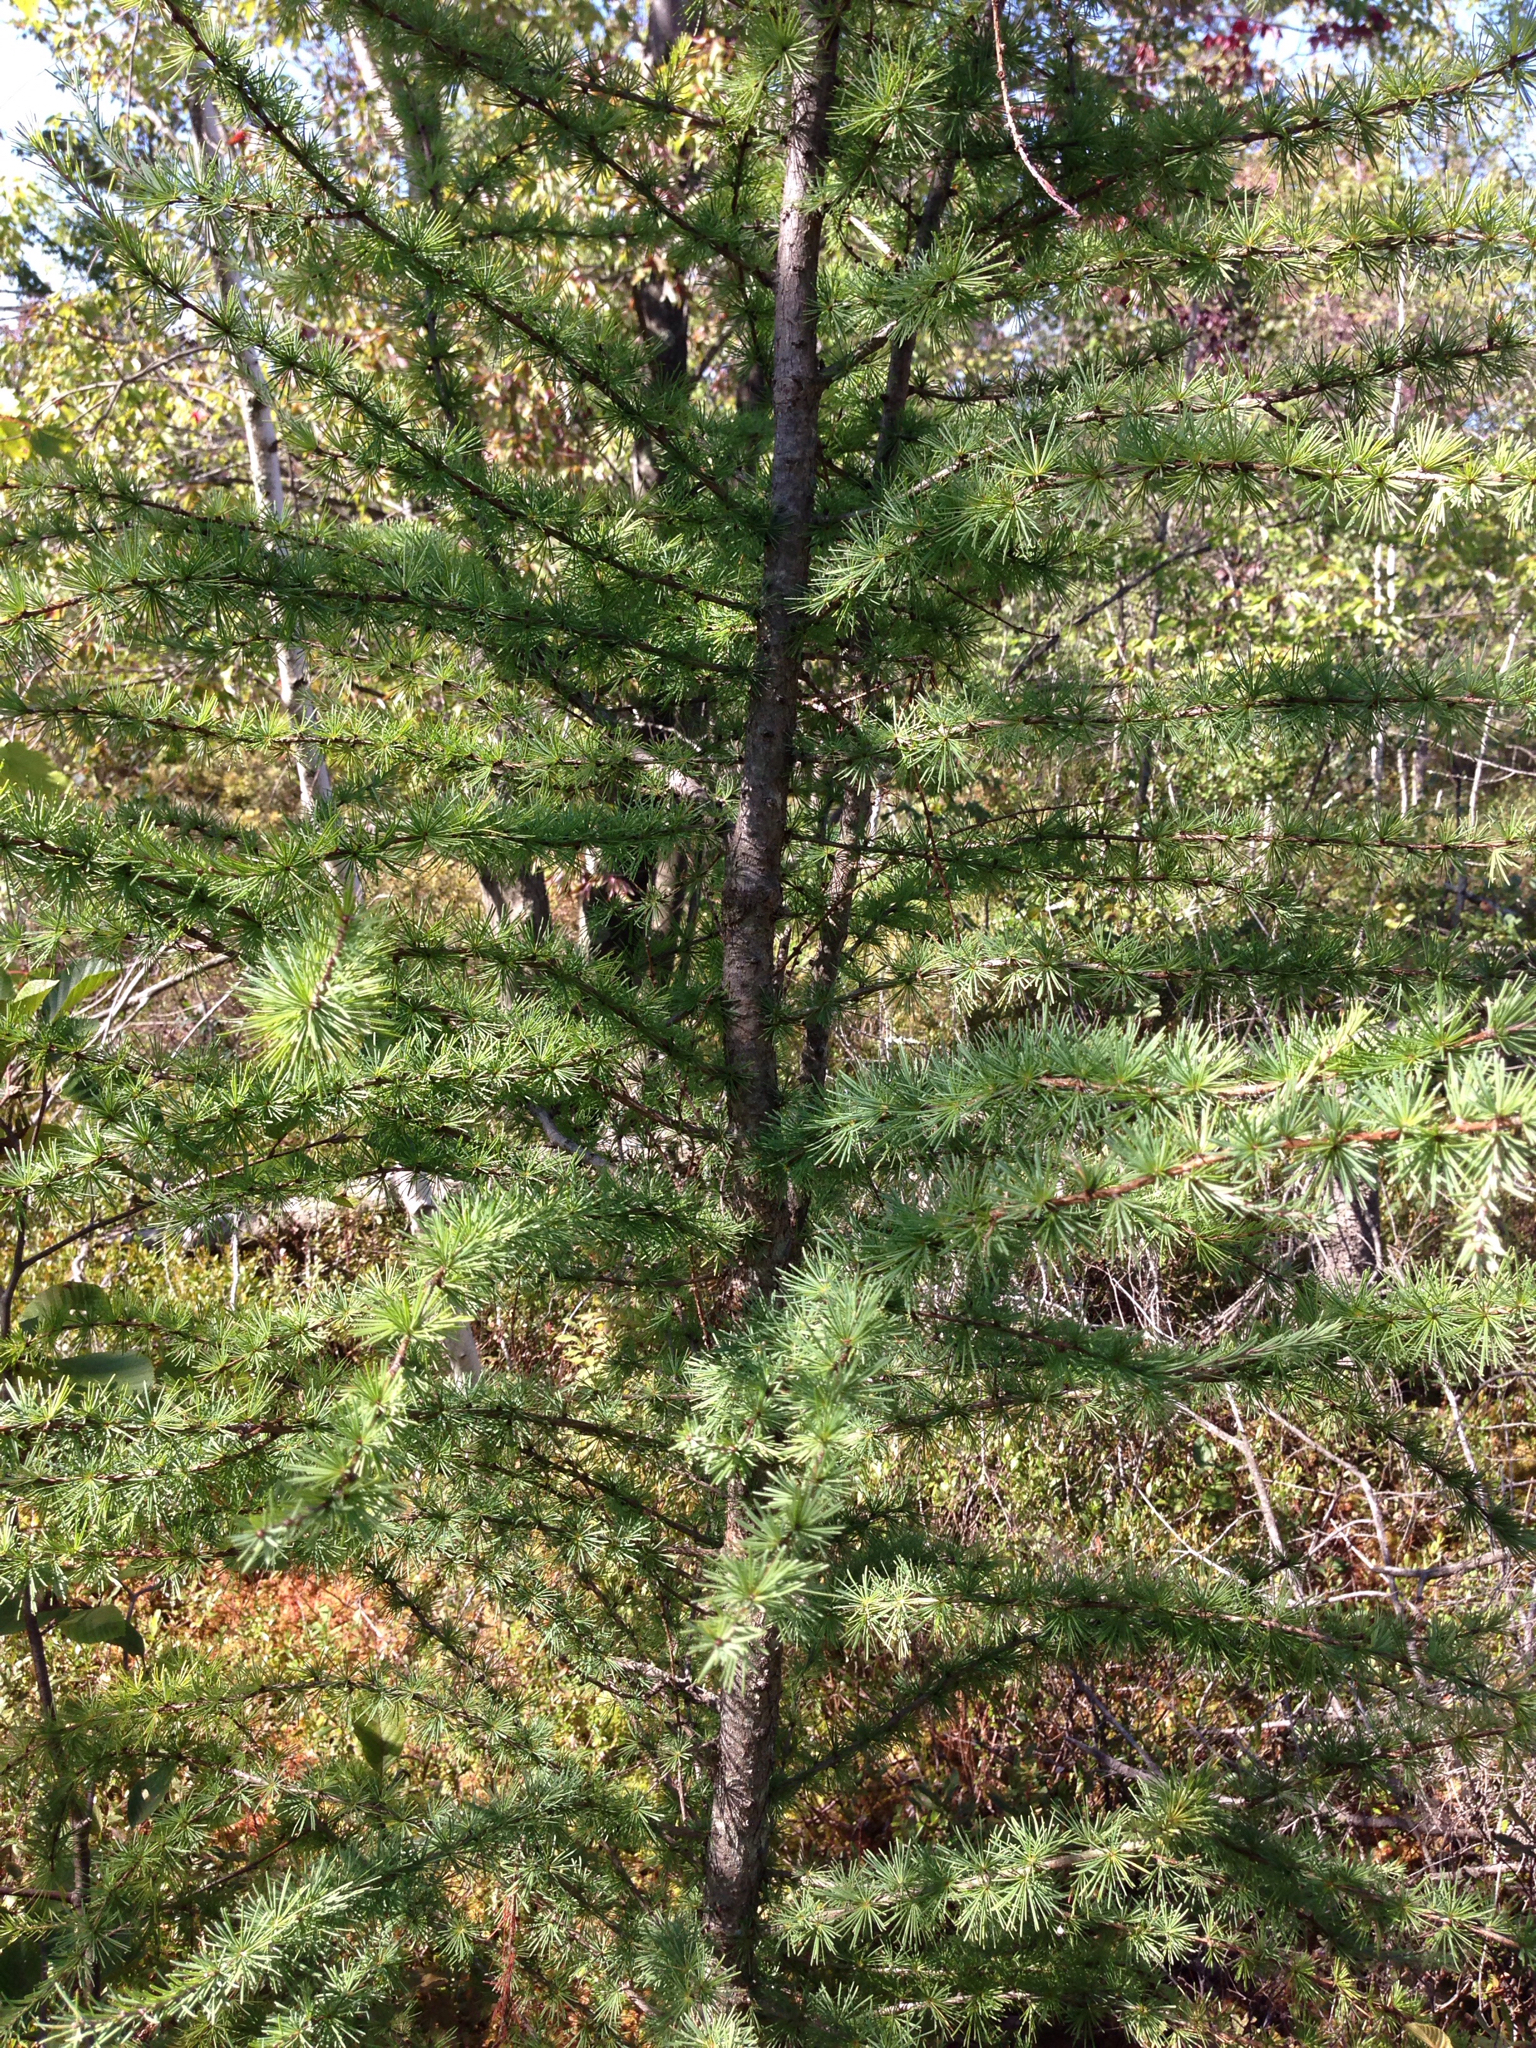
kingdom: Plantae
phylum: Tracheophyta
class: Pinopsida
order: Pinales
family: Pinaceae
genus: Larix
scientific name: Larix laricina
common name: American larch
